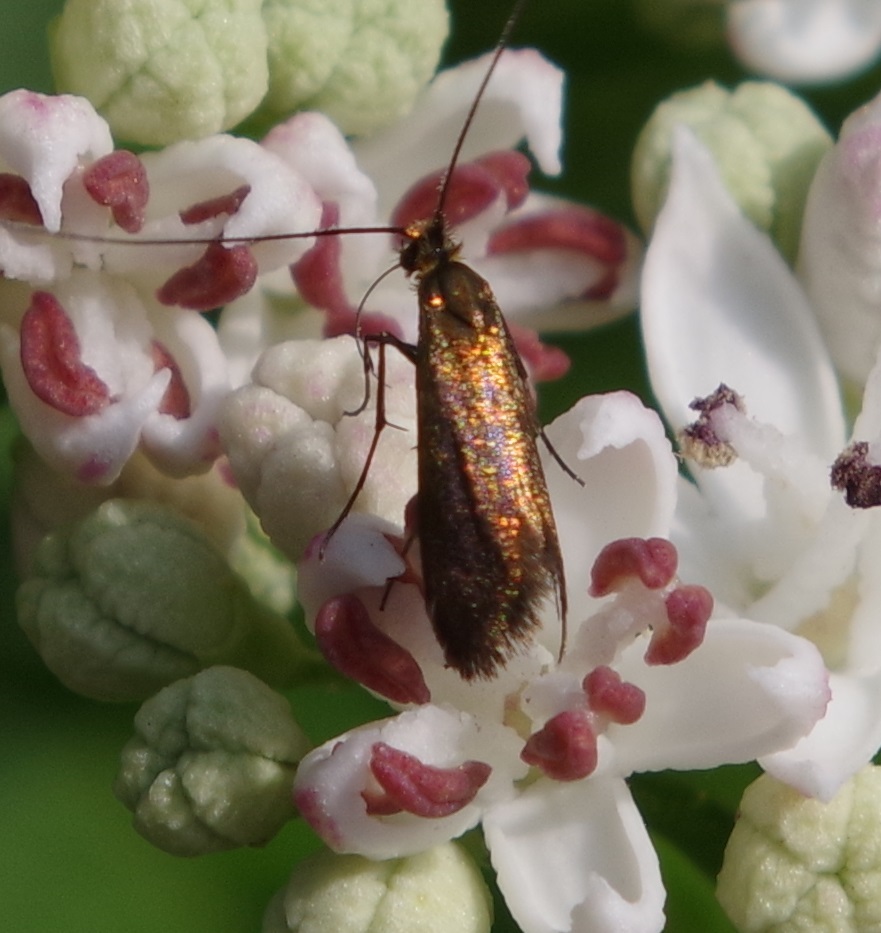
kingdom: Animalia
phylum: Arthropoda
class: Insecta
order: Lepidoptera
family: Adelidae
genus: Adela
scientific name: Adela violella
